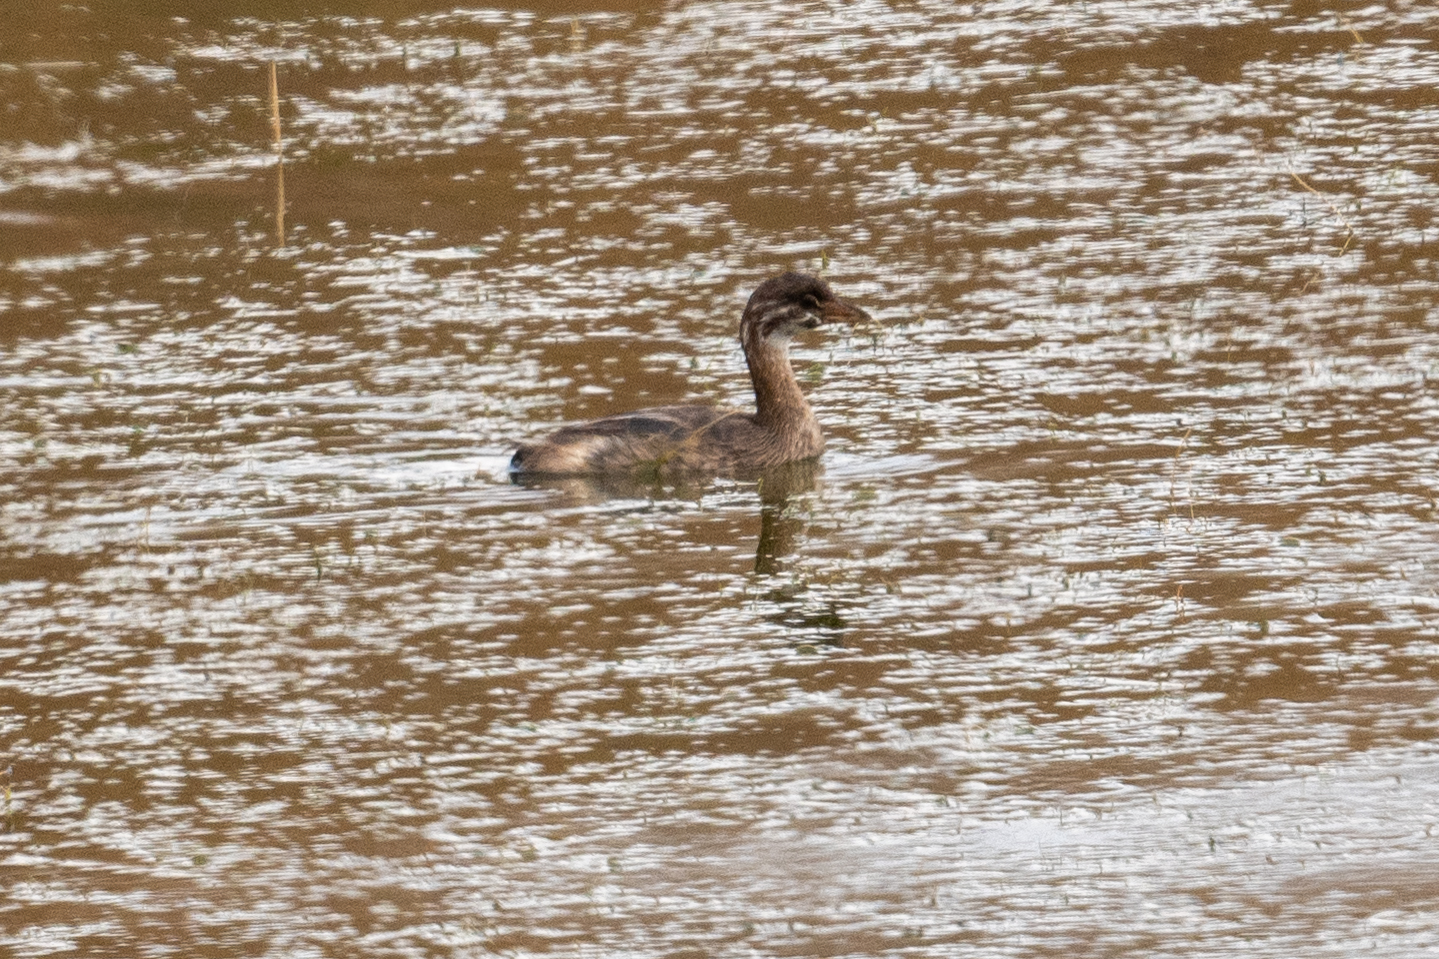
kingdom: Animalia
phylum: Chordata
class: Aves
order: Podicipediformes
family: Podicipedidae
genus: Podilymbus
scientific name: Podilymbus podiceps
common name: Pied-billed grebe
